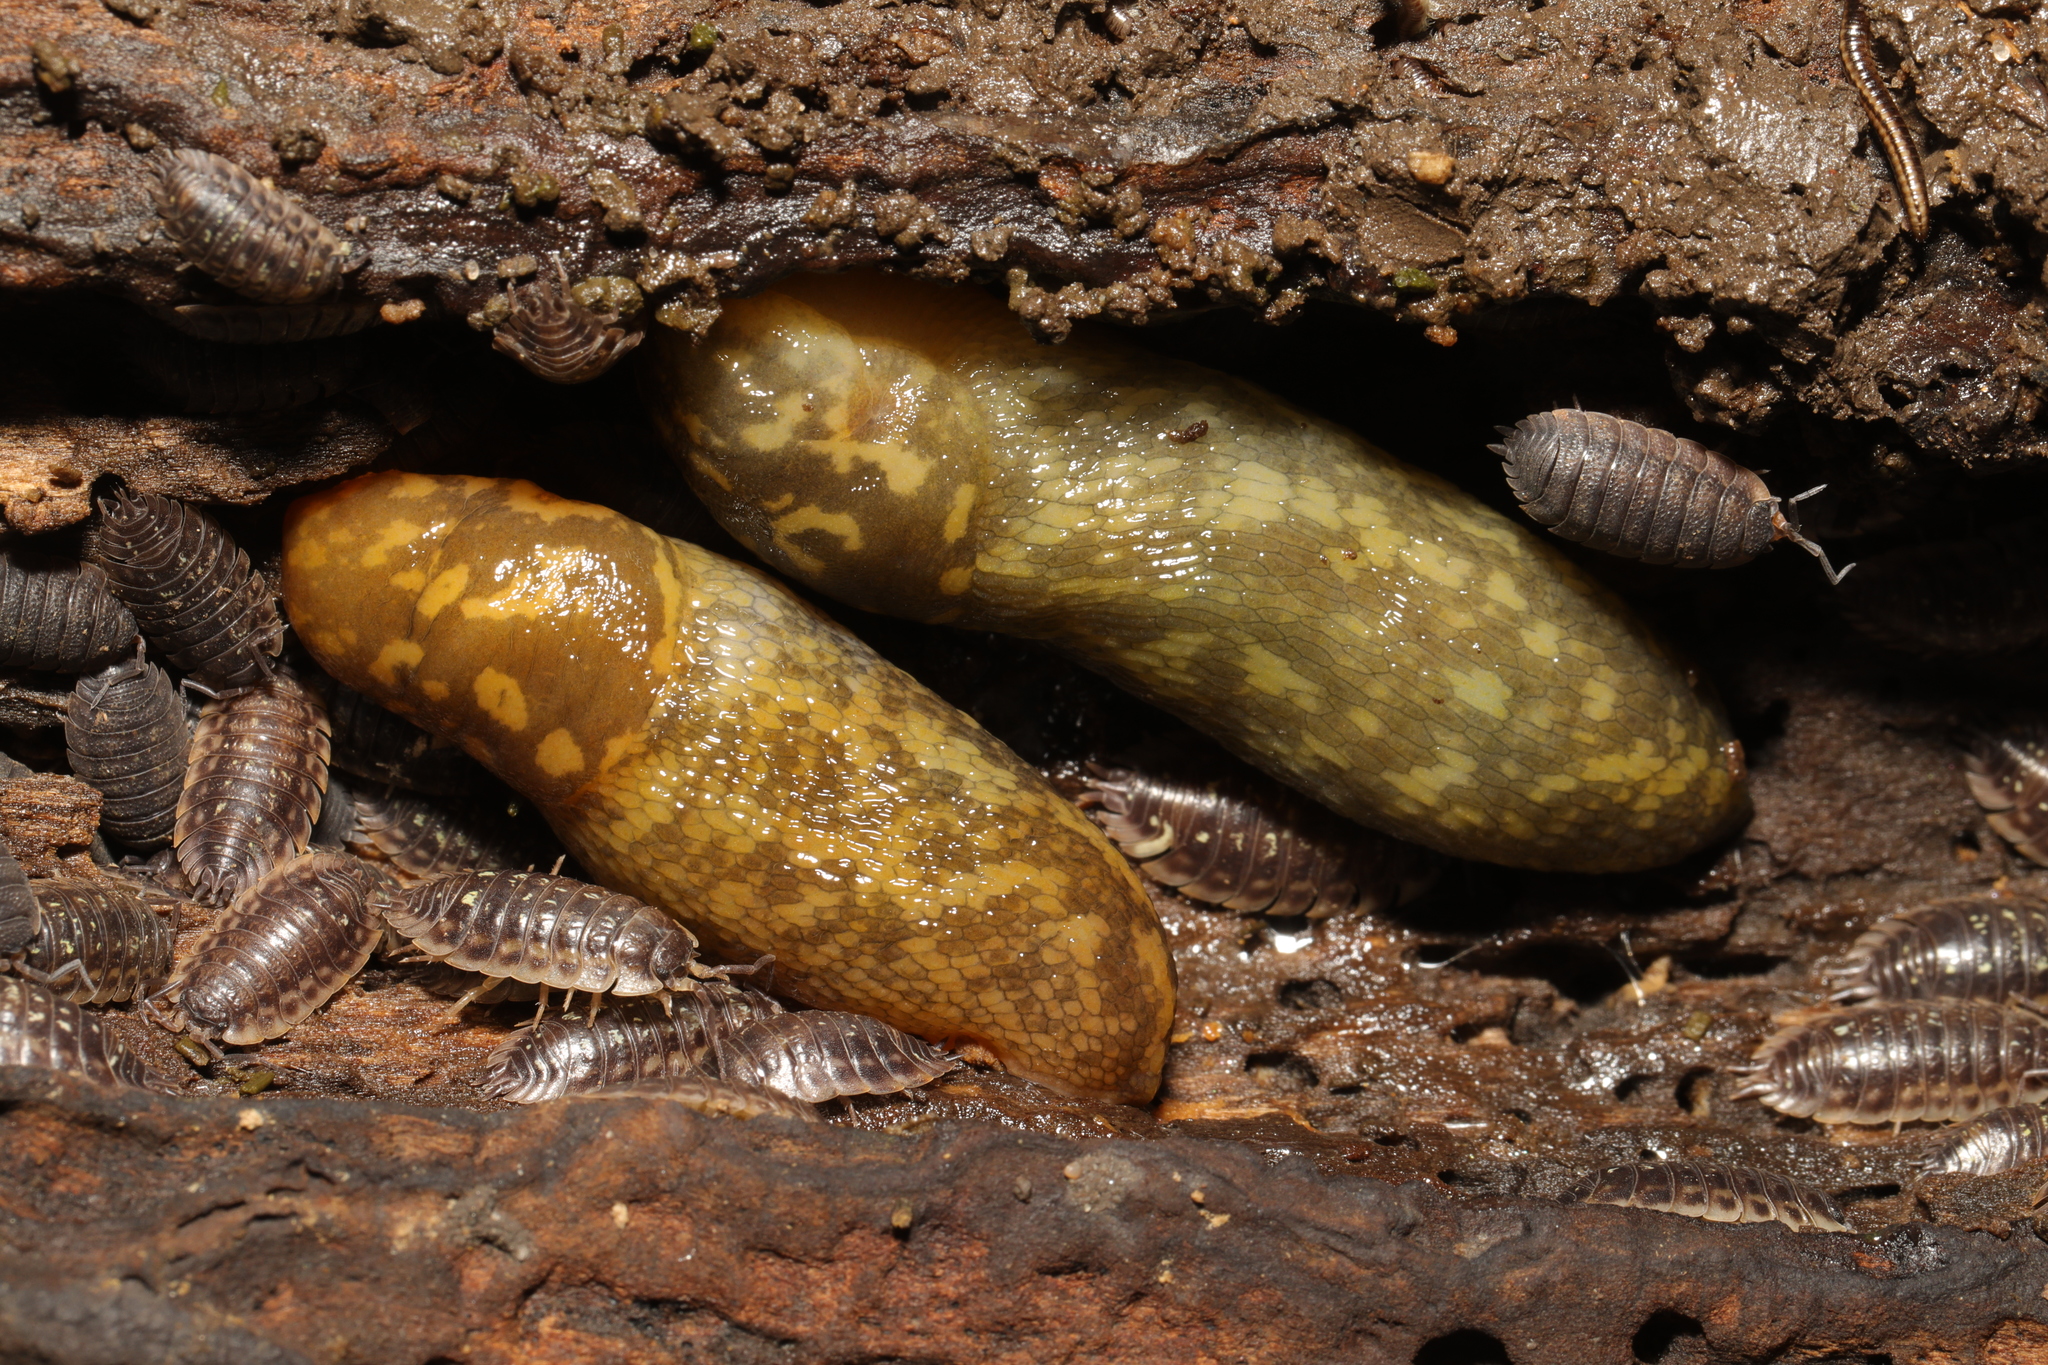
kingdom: Animalia
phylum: Mollusca
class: Gastropoda
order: Stylommatophora
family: Limacidae
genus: Limacus
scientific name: Limacus maculatus
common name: Irish yellow slug
